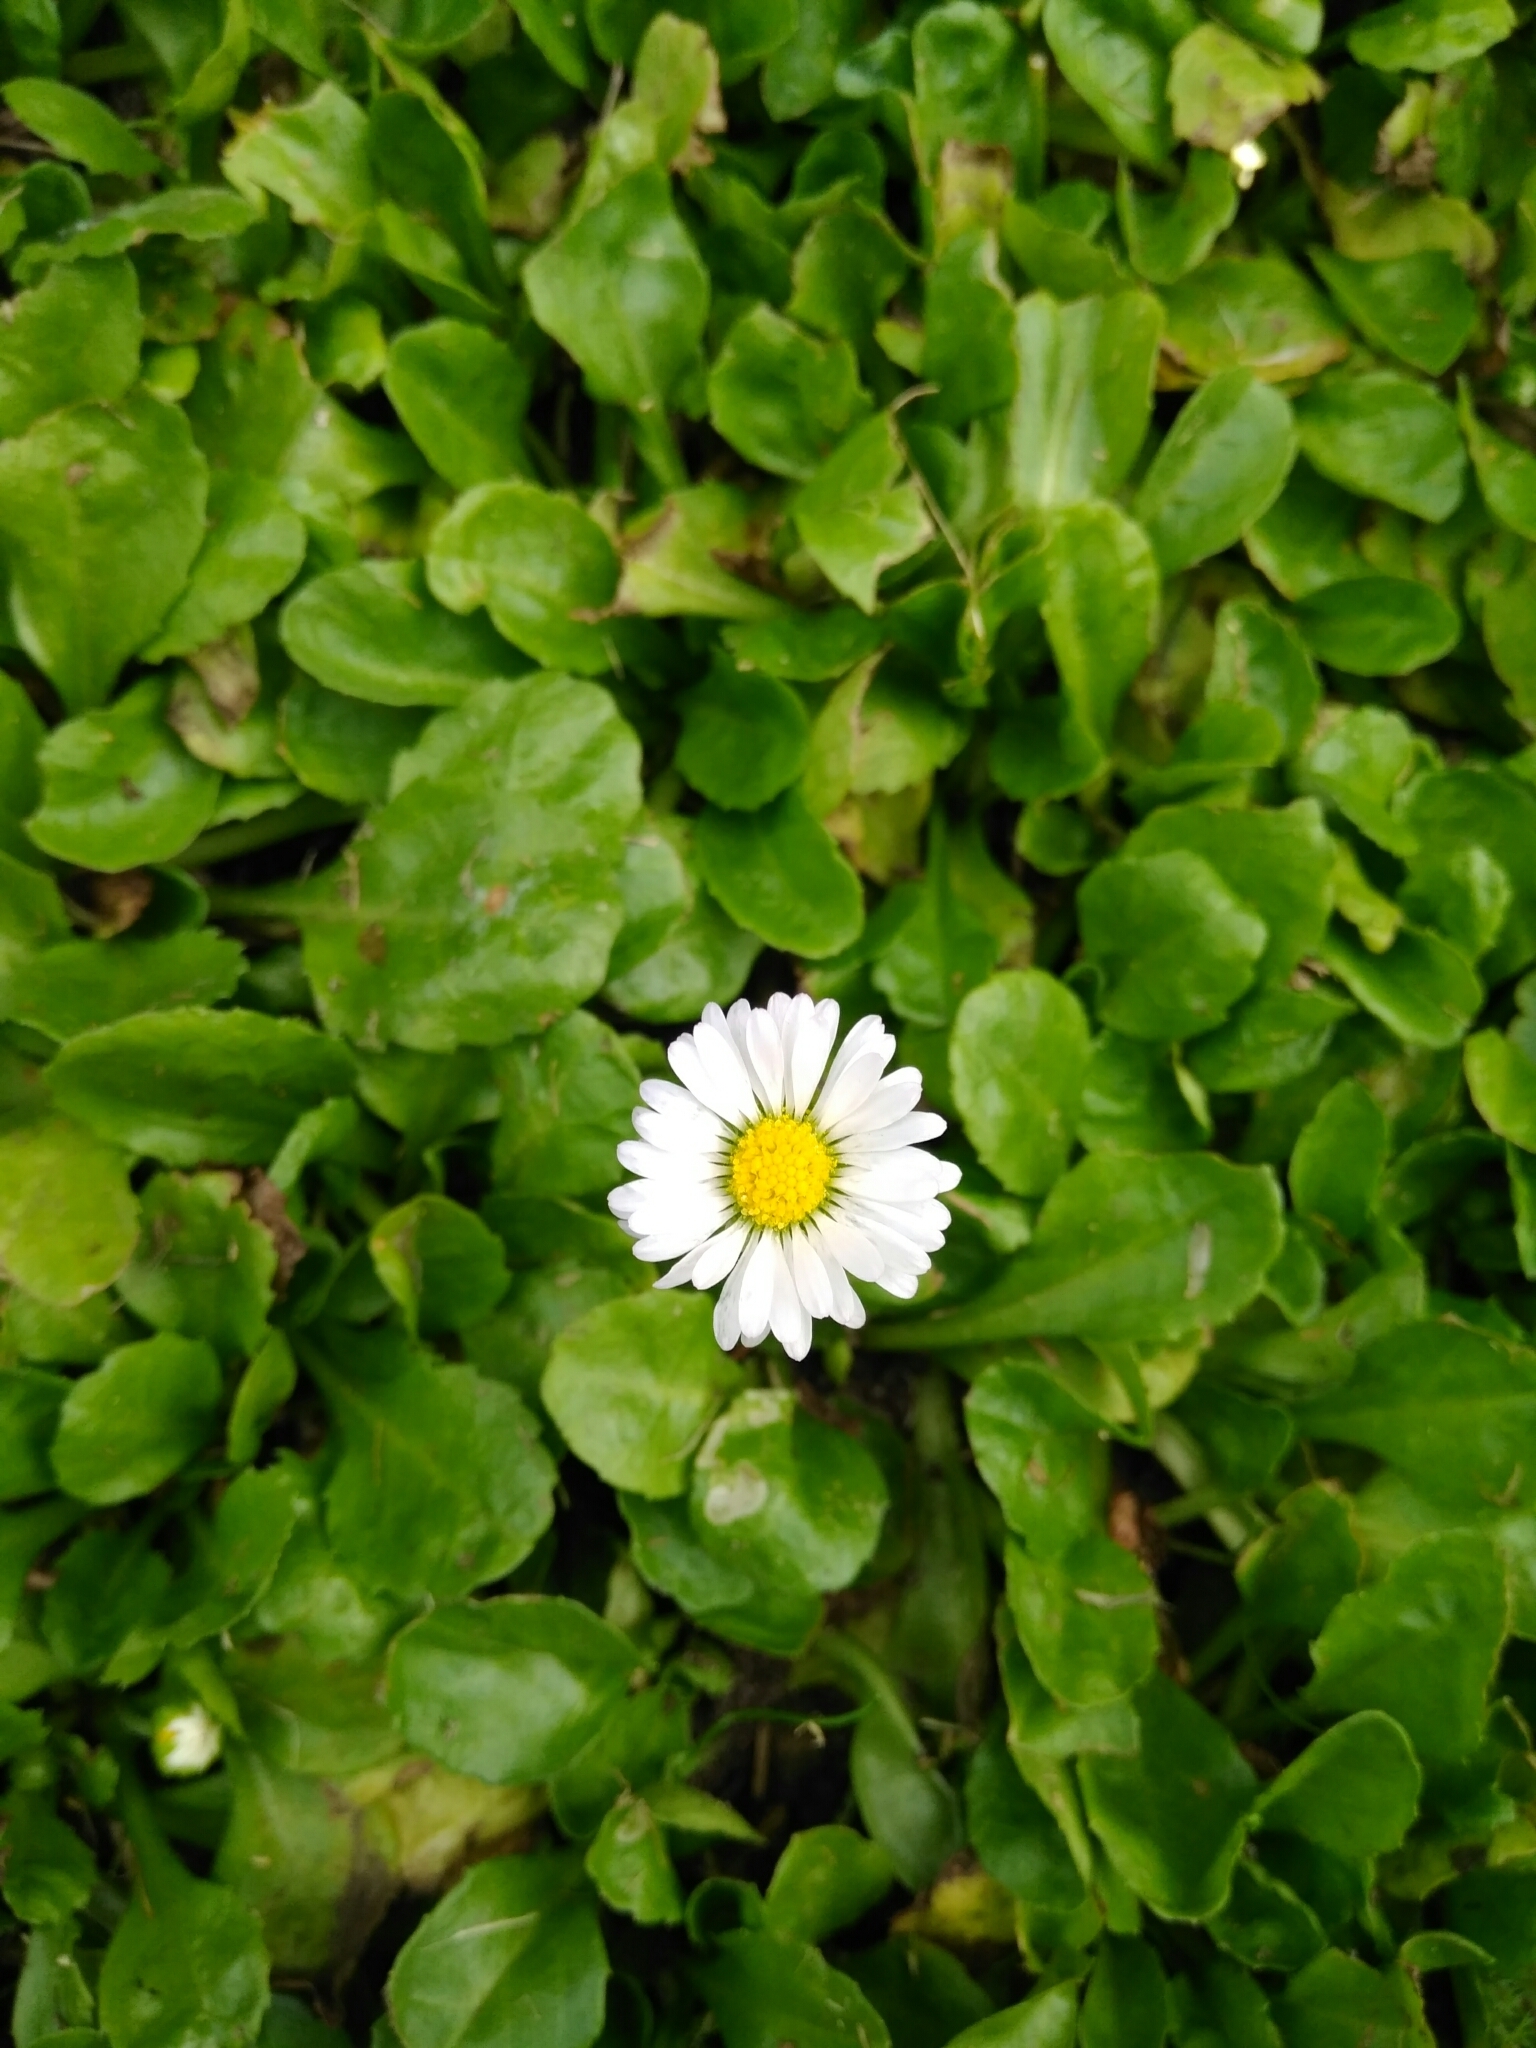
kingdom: Plantae
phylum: Tracheophyta
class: Magnoliopsida
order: Asterales
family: Asteraceae
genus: Bellis
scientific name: Bellis perennis
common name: Lawndaisy
